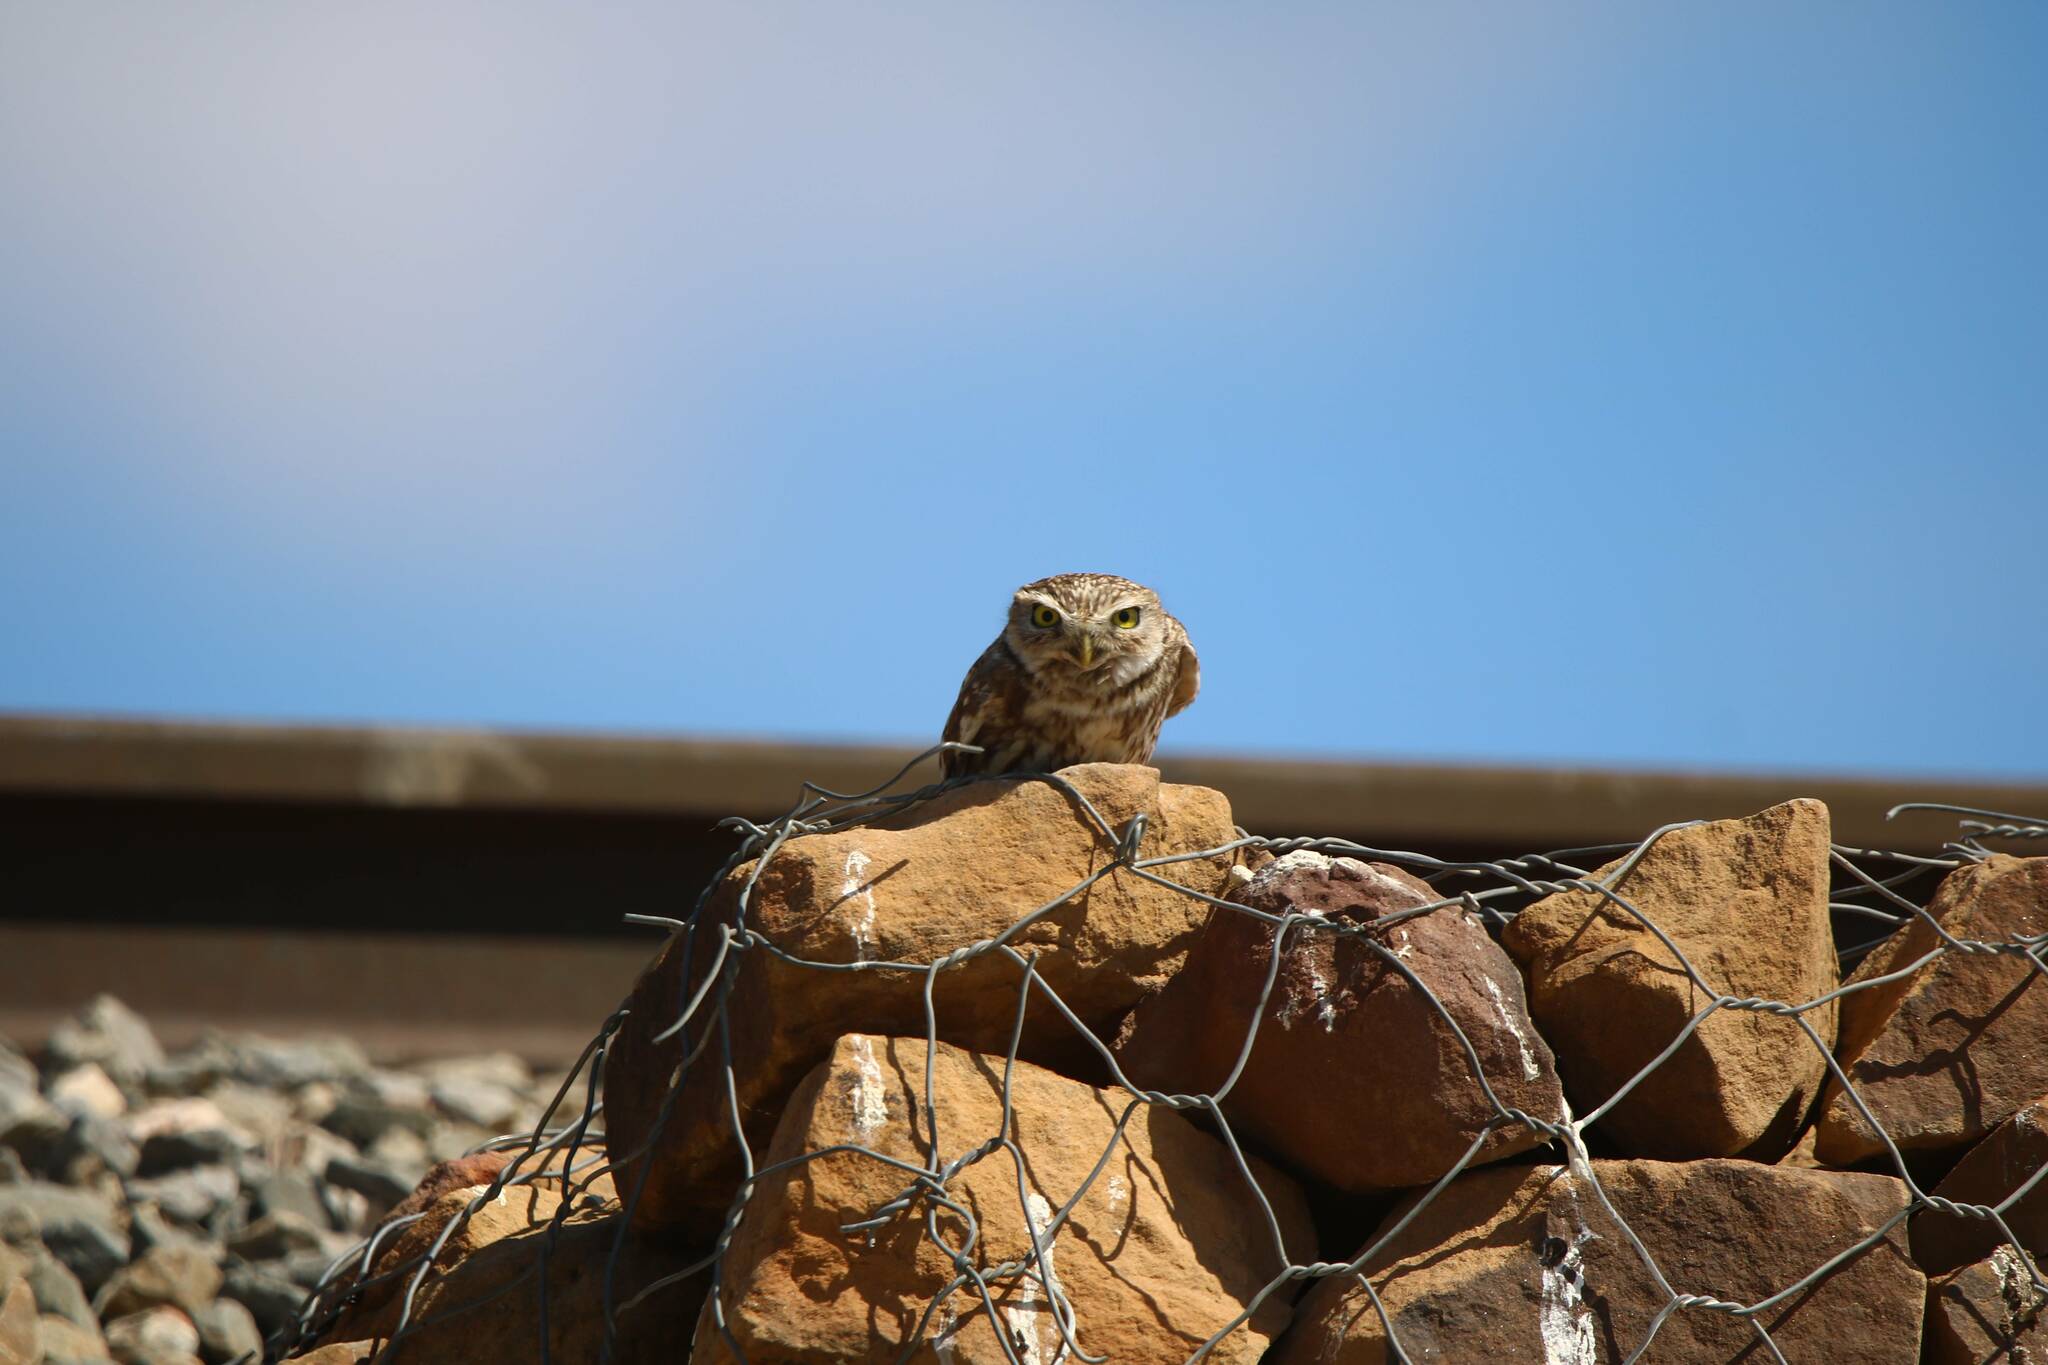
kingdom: Animalia
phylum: Chordata
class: Aves
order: Strigiformes
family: Strigidae
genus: Athene
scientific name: Athene noctua
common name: Little owl
